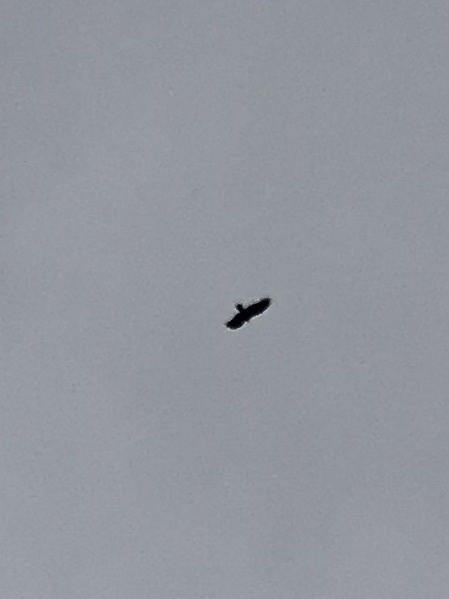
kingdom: Animalia
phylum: Chordata
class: Aves
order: Accipitriformes
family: Cathartidae
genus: Cathartes
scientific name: Cathartes aura
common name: Turkey vulture
